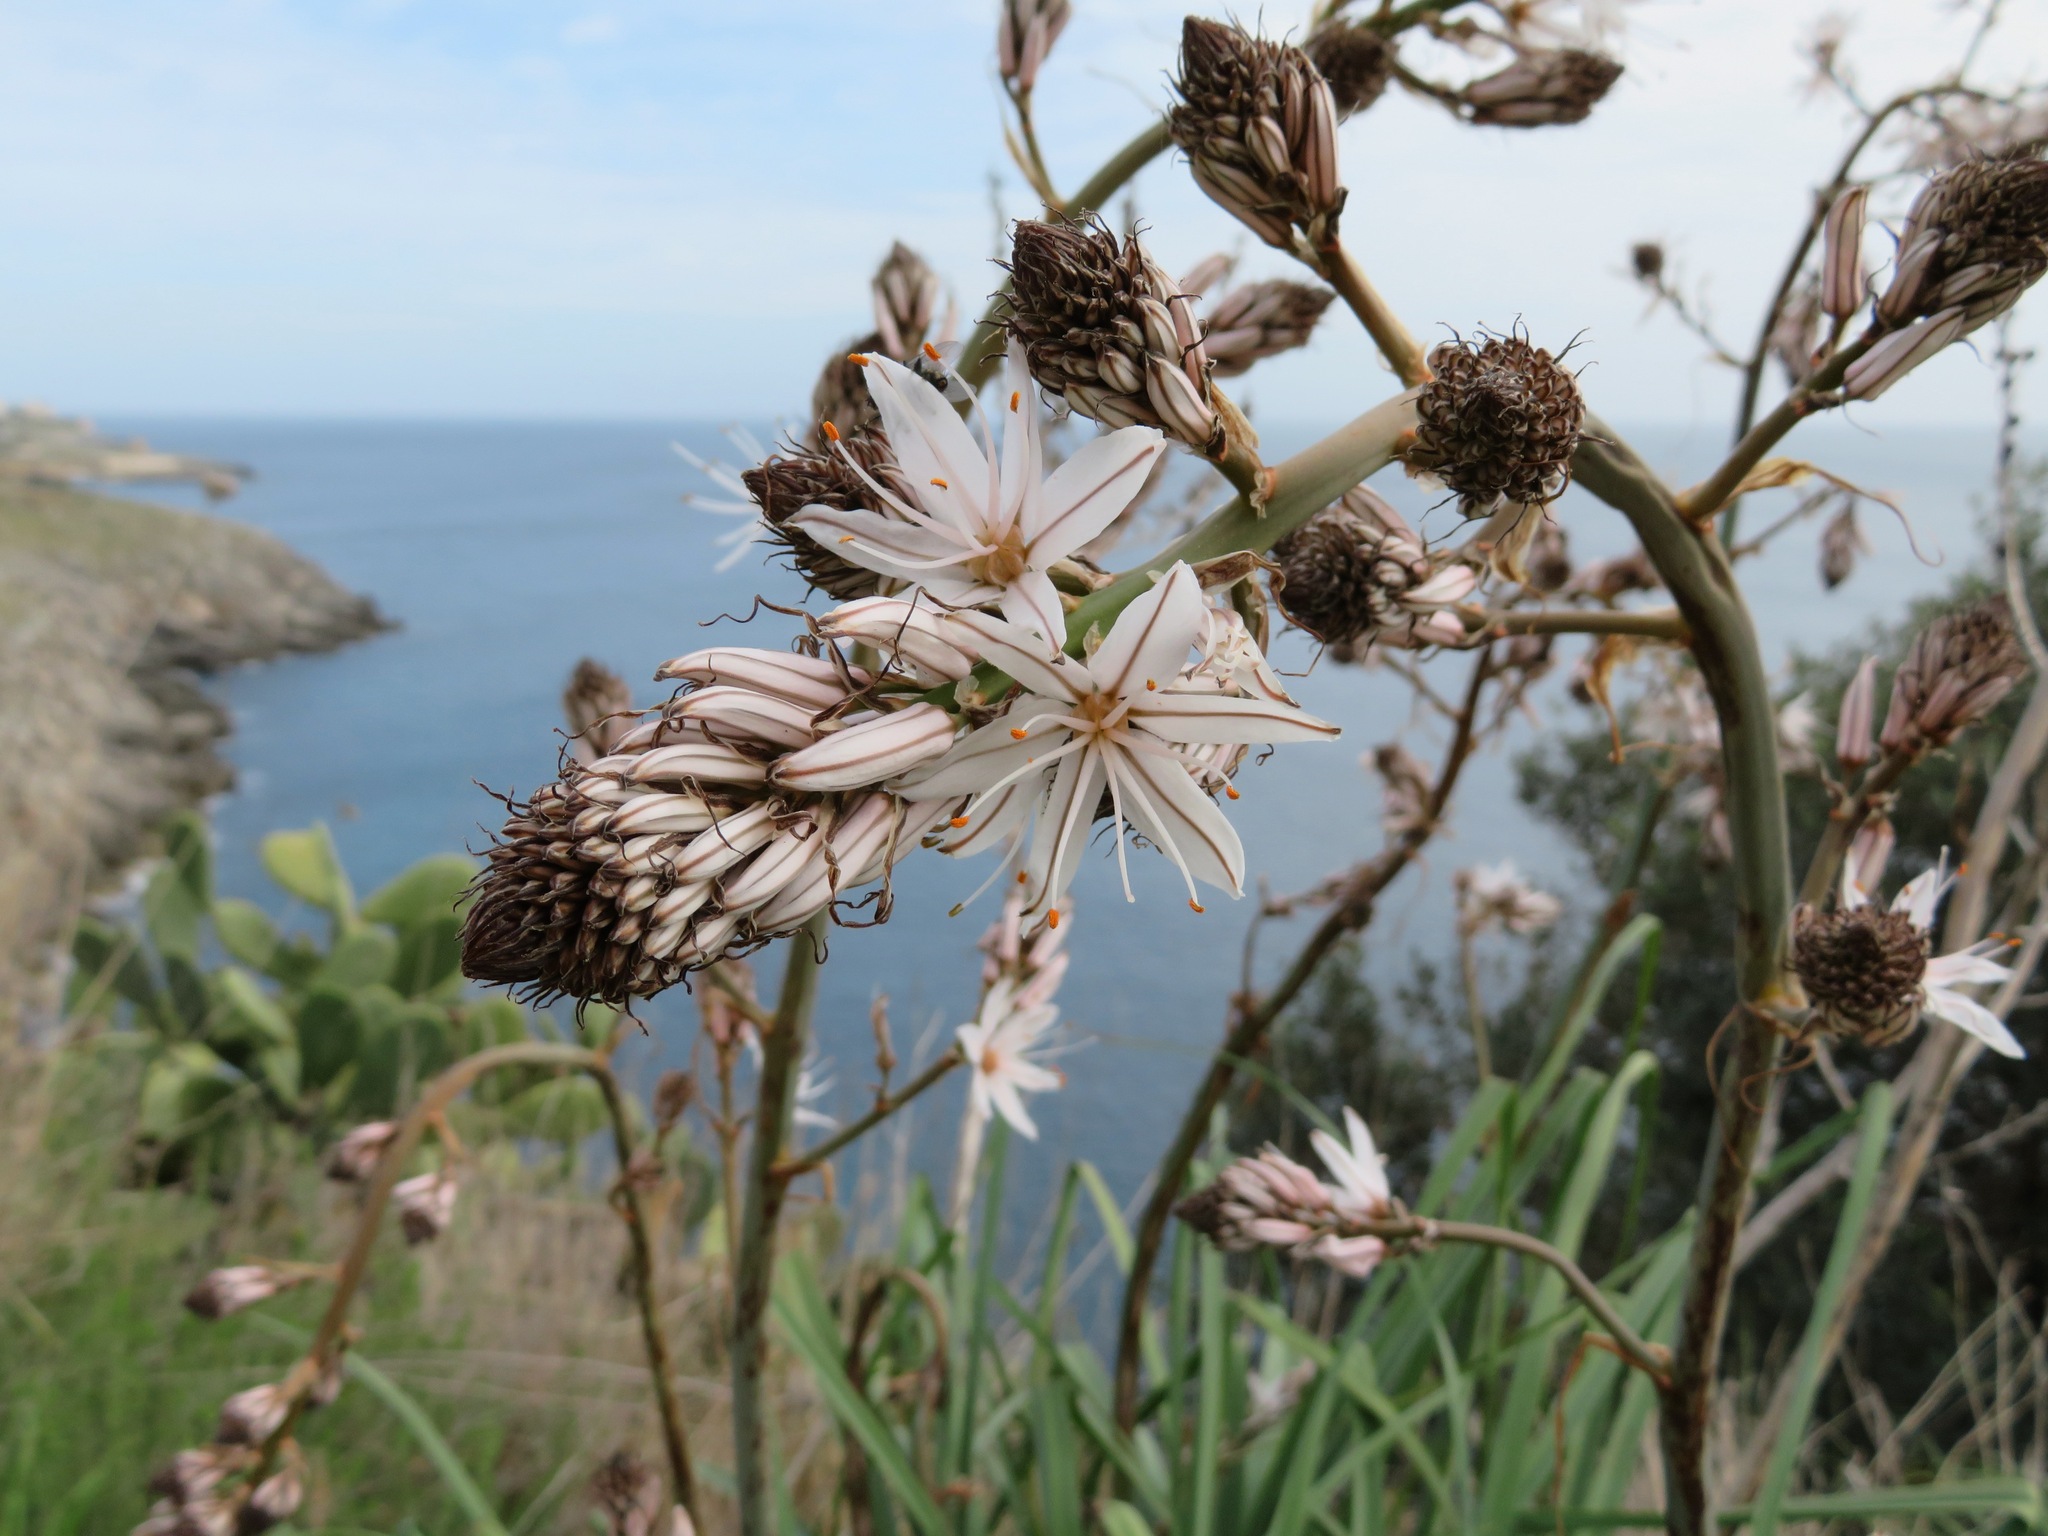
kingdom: Plantae
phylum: Tracheophyta
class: Liliopsida
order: Asparagales
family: Asphodelaceae
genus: Asphodelus
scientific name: Asphodelus ramosus
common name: Silverrod
